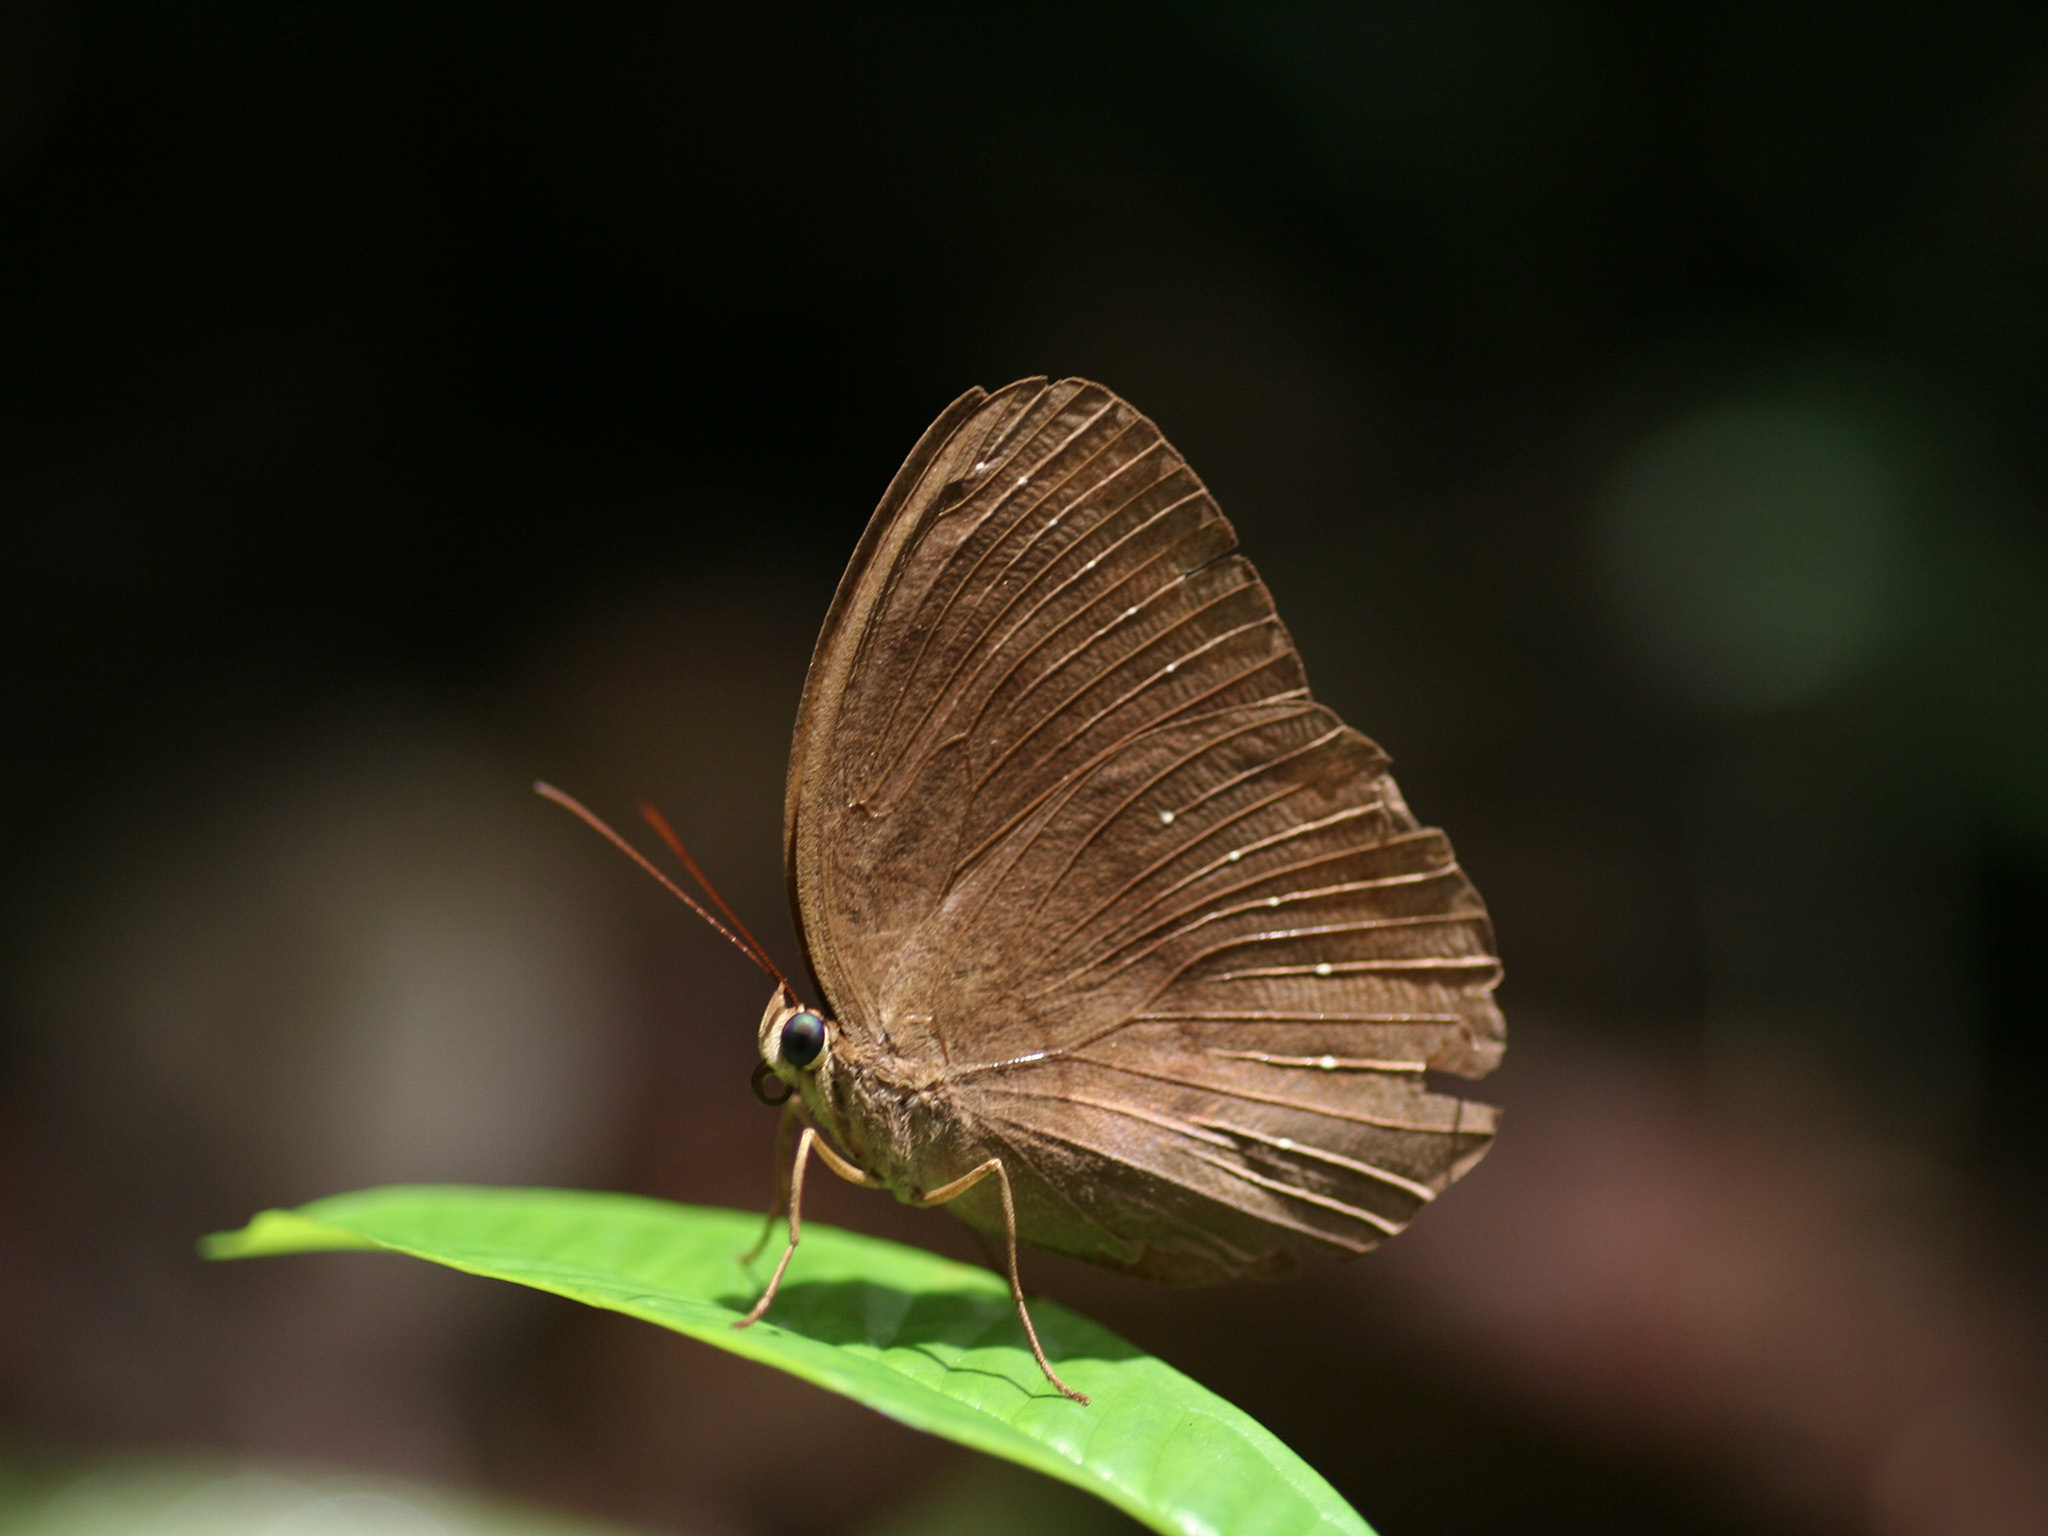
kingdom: Animalia
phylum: Arthropoda
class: Insecta
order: Lepidoptera
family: Nymphalidae
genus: Faunis
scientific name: Faunis canens
